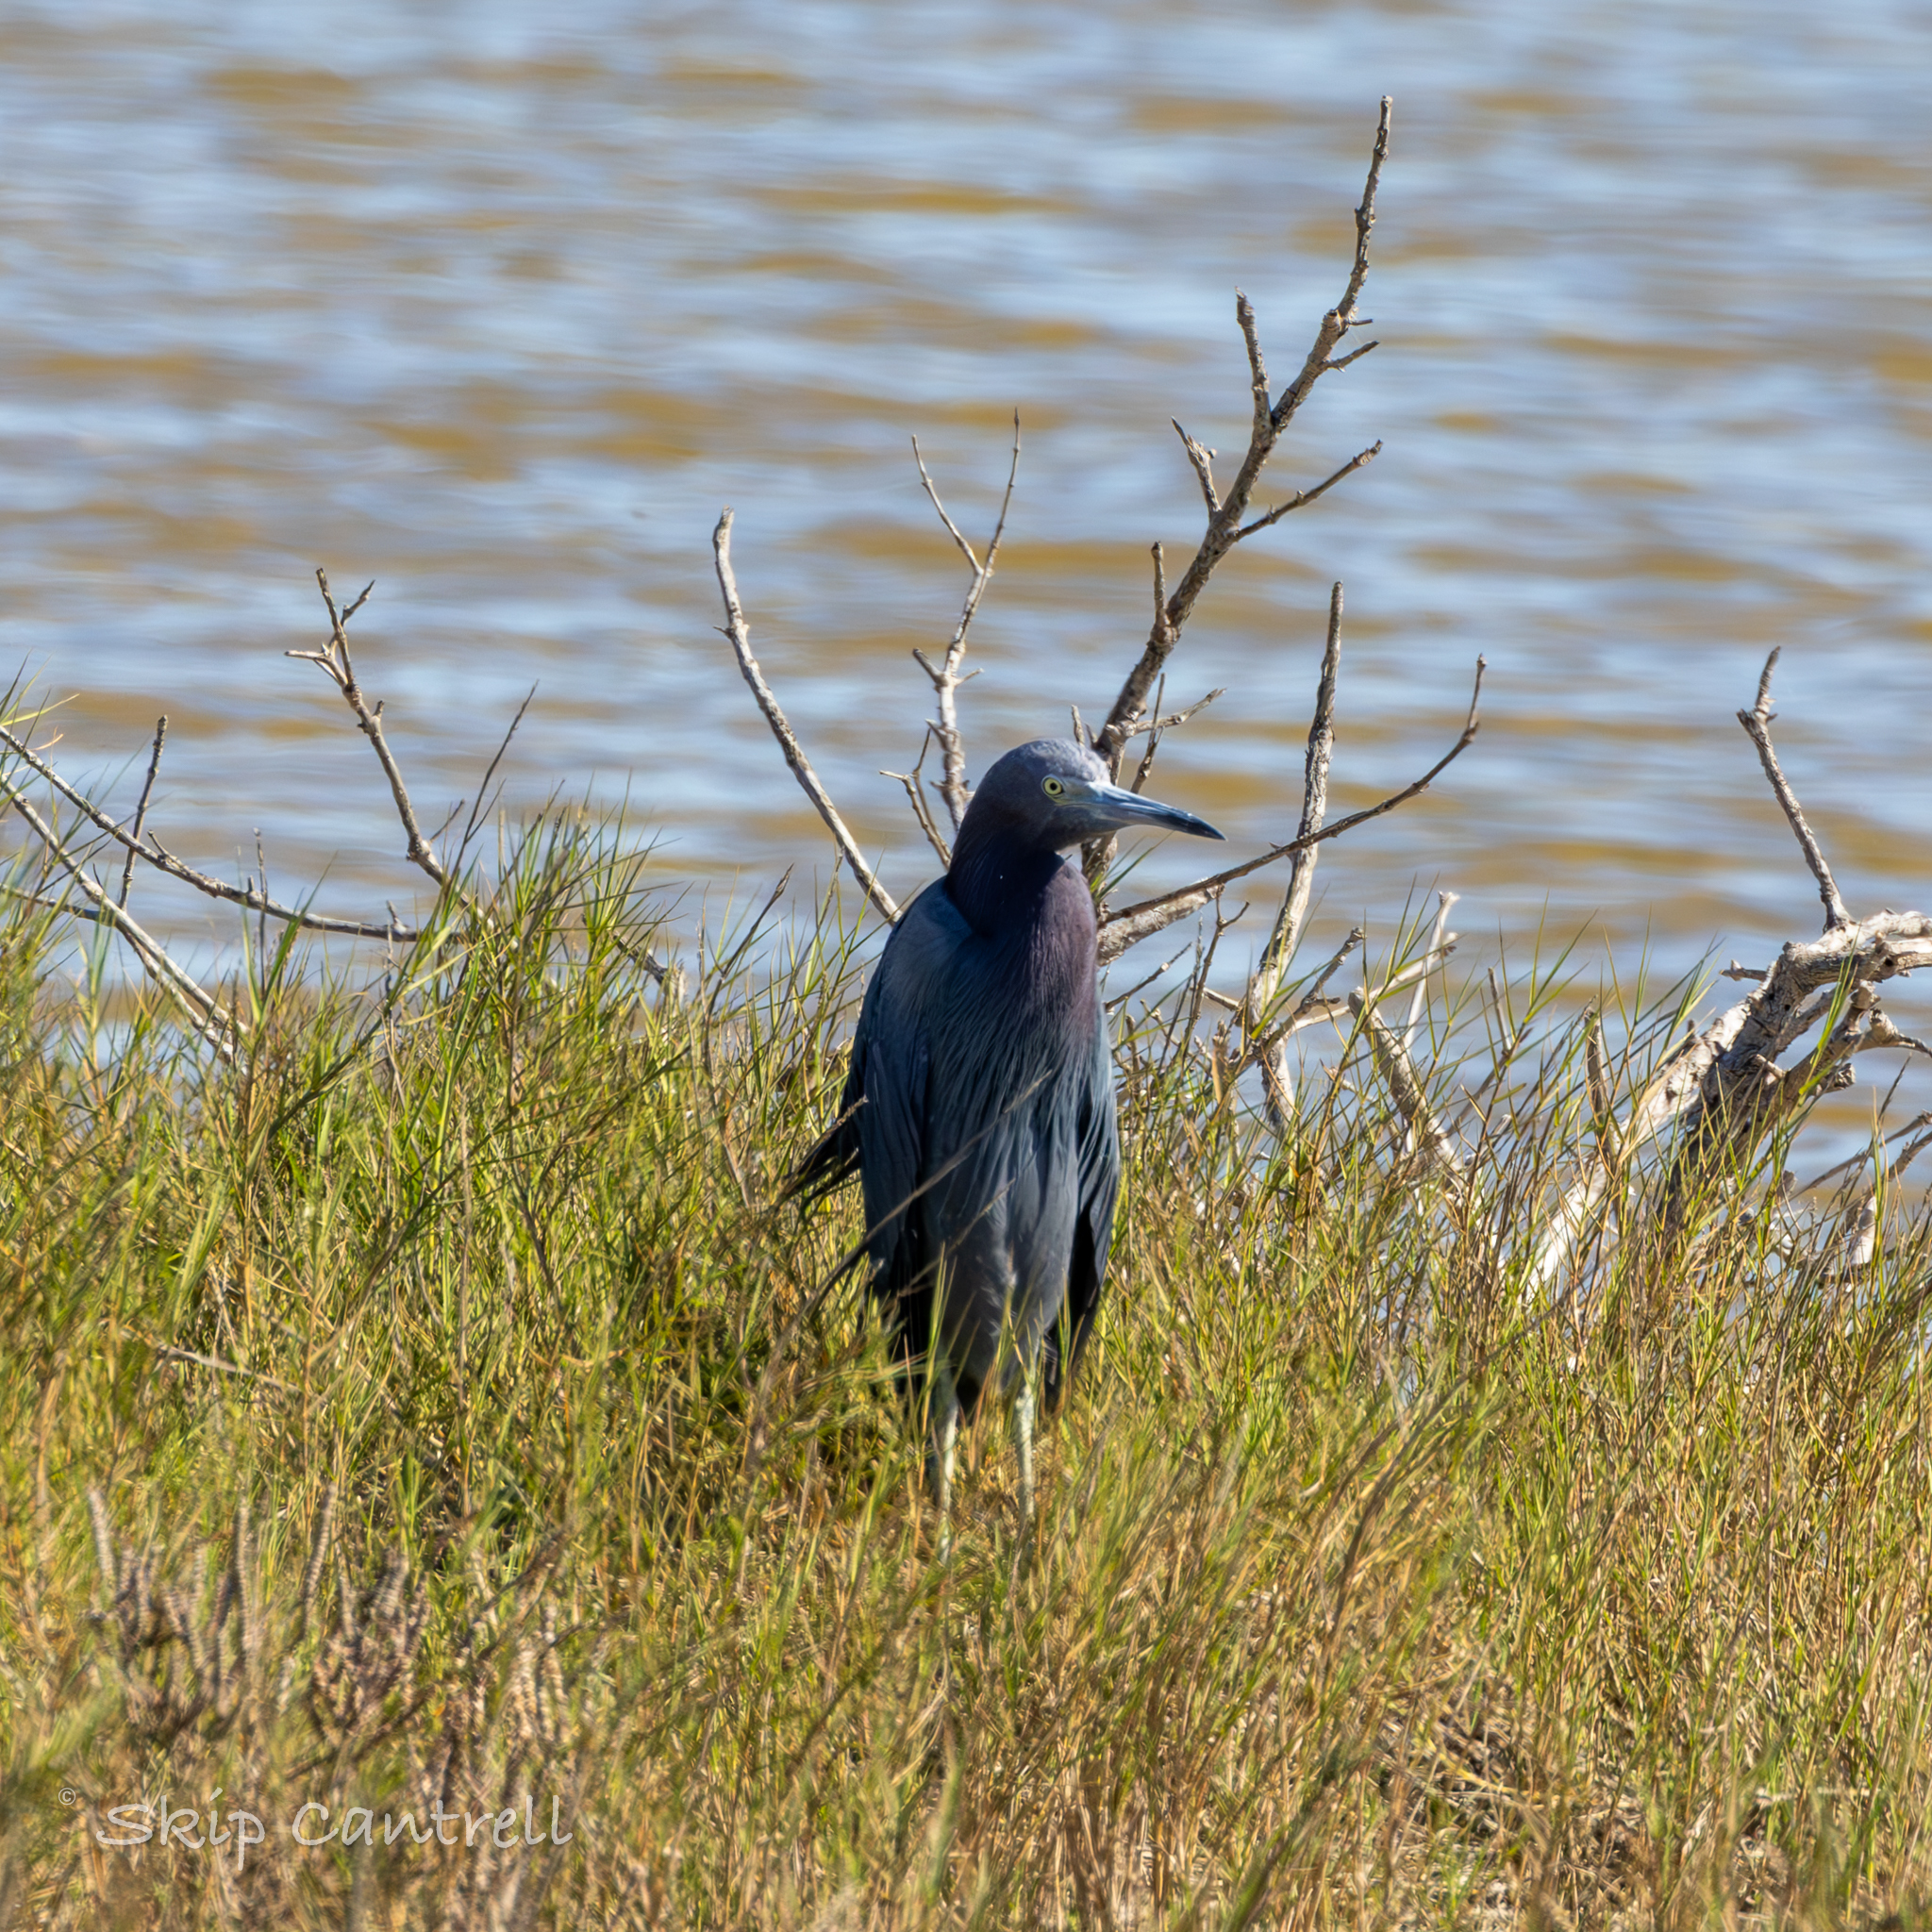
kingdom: Animalia
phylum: Chordata
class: Aves
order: Pelecaniformes
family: Ardeidae
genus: Egretta
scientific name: Egretta caerulea
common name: Little blue heron
